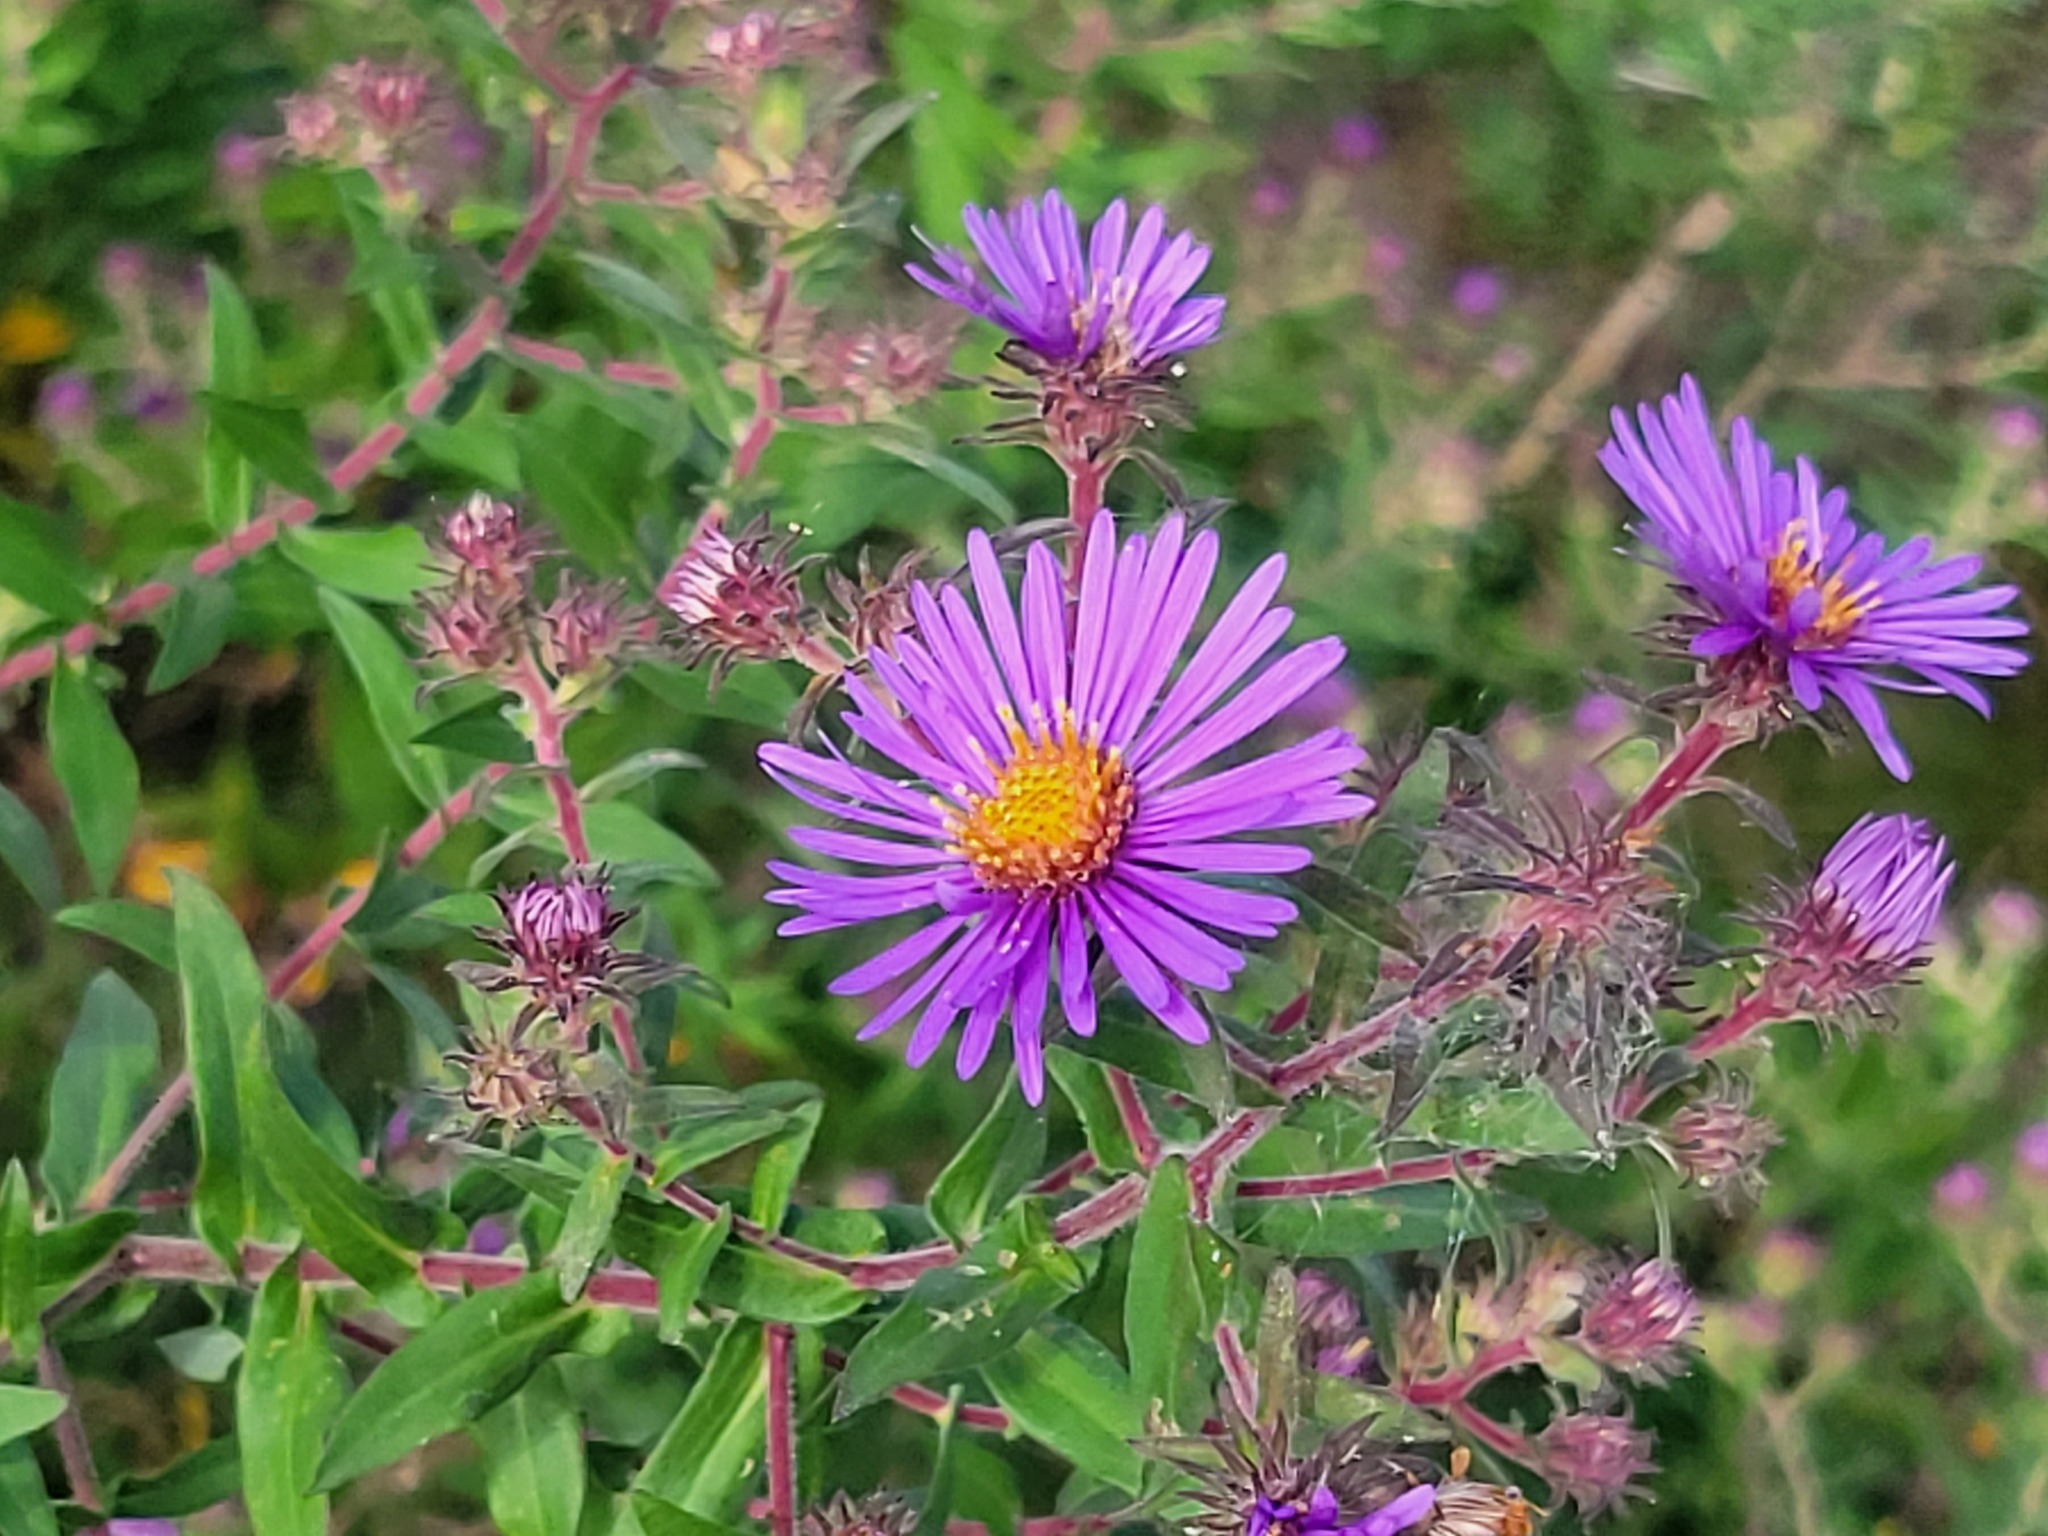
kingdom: Plantae
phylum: Tracheophyta
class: Magnoliopsida
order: Asterales
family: Asteraceae
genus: Symphyotrichum
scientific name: Symphyotrichum novae-angliae
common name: Michaelmas daisy
